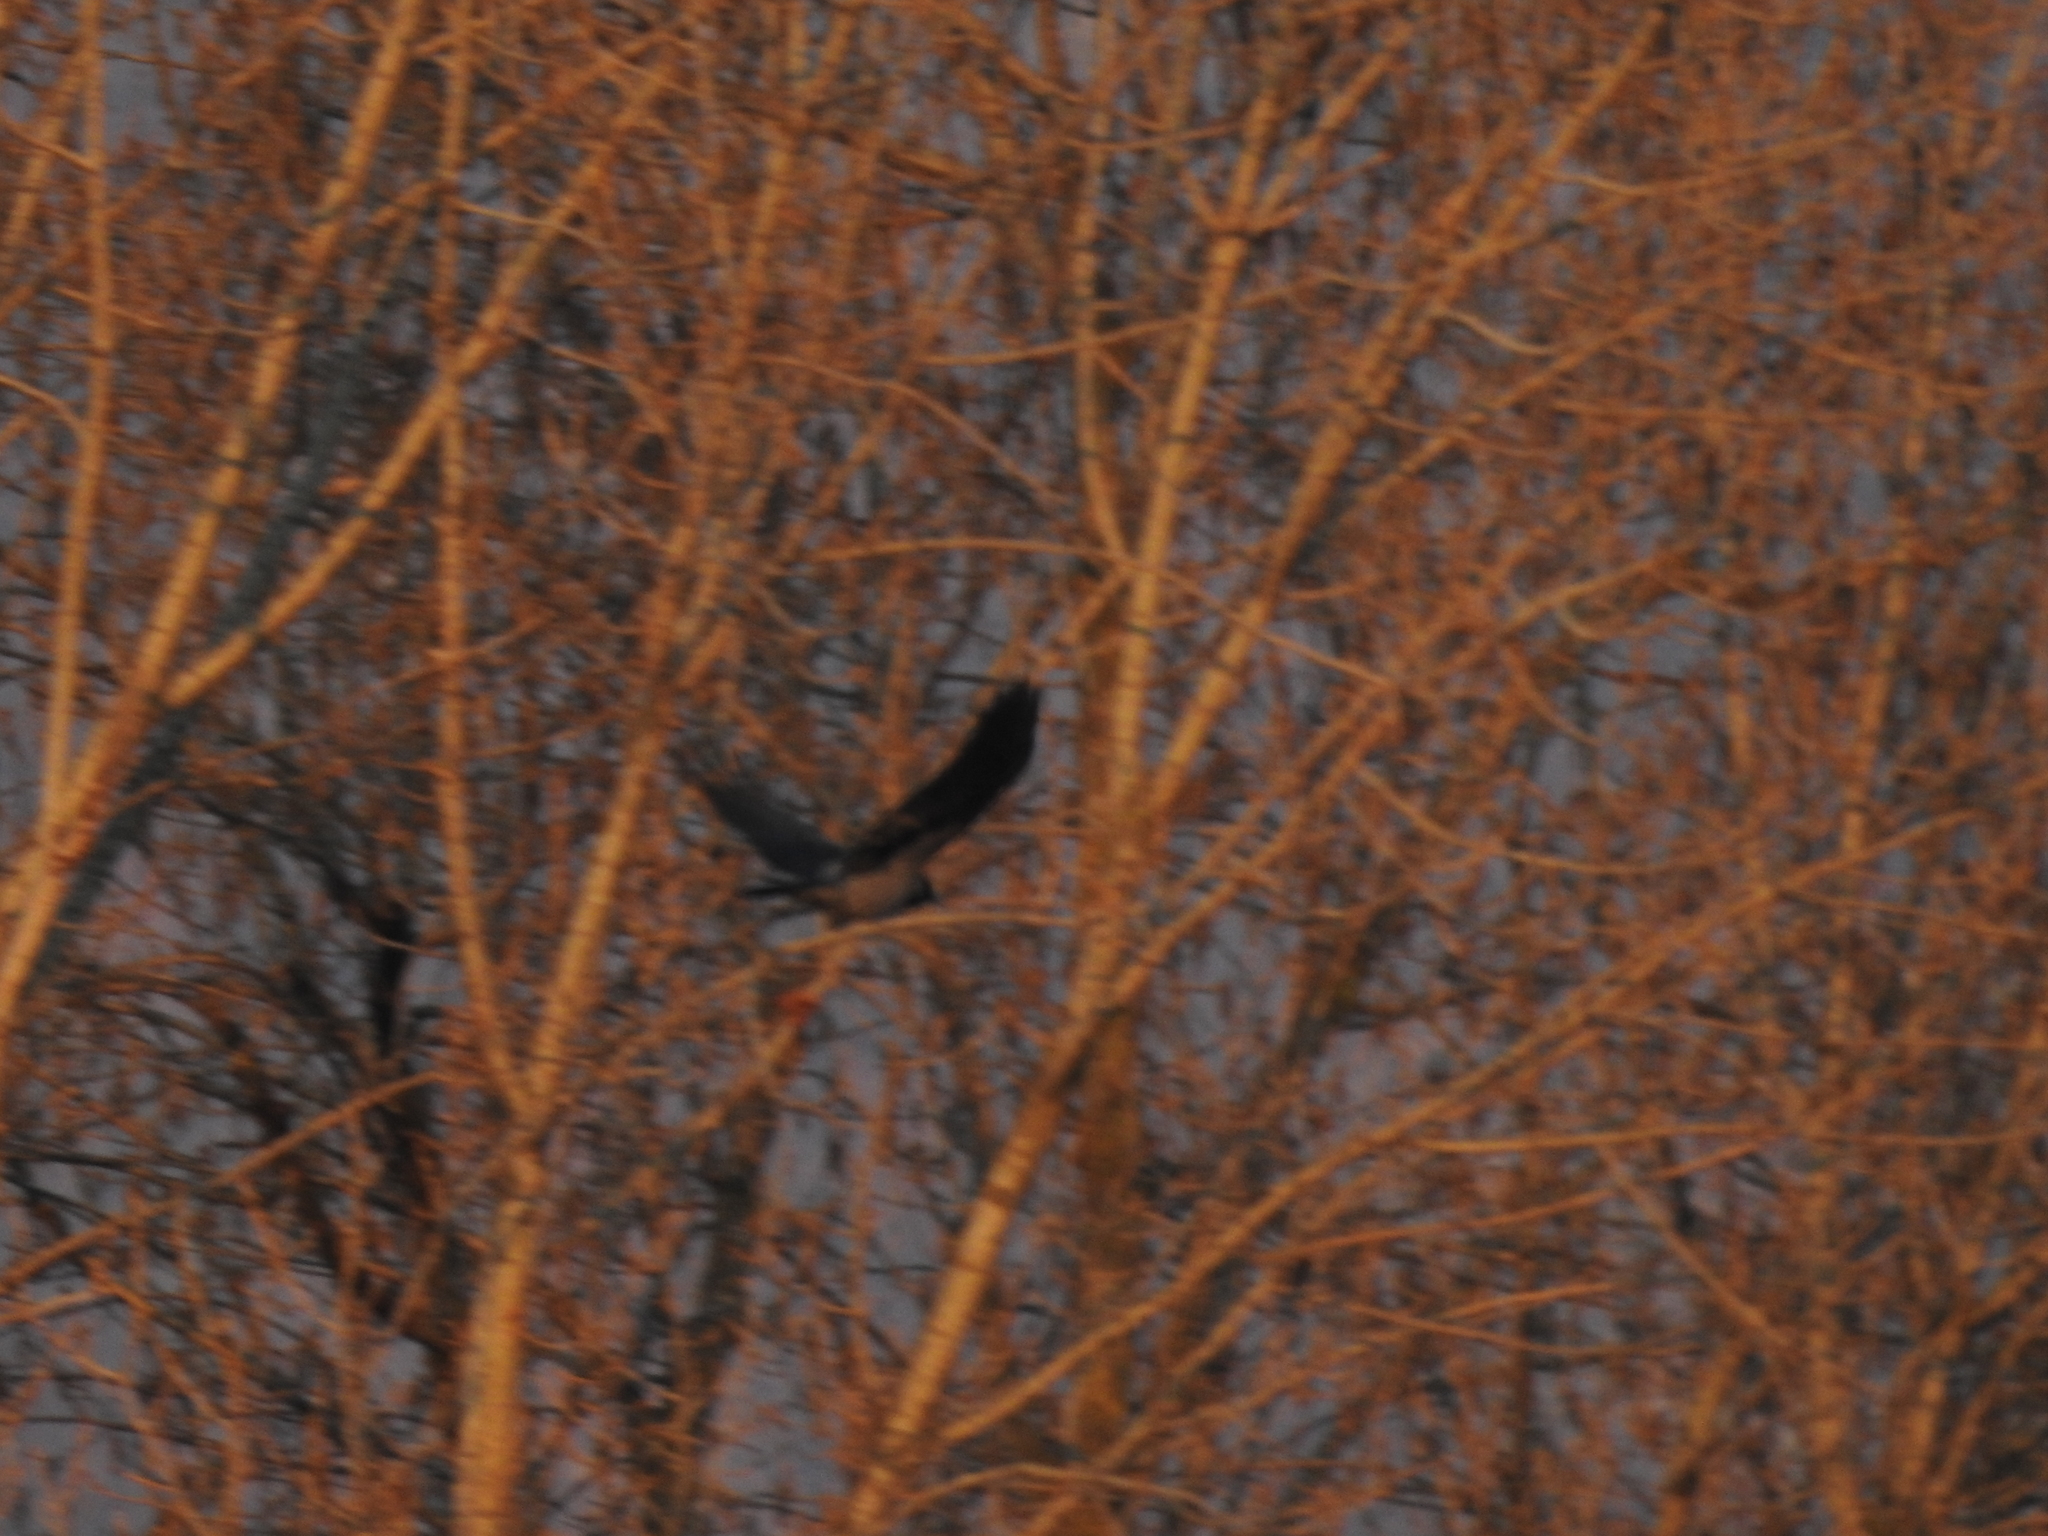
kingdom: Animalia
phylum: Chordata
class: Aves
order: Passeriformes
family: Corvidae
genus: Corvus
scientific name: Corvus cornix
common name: Hooded crow
